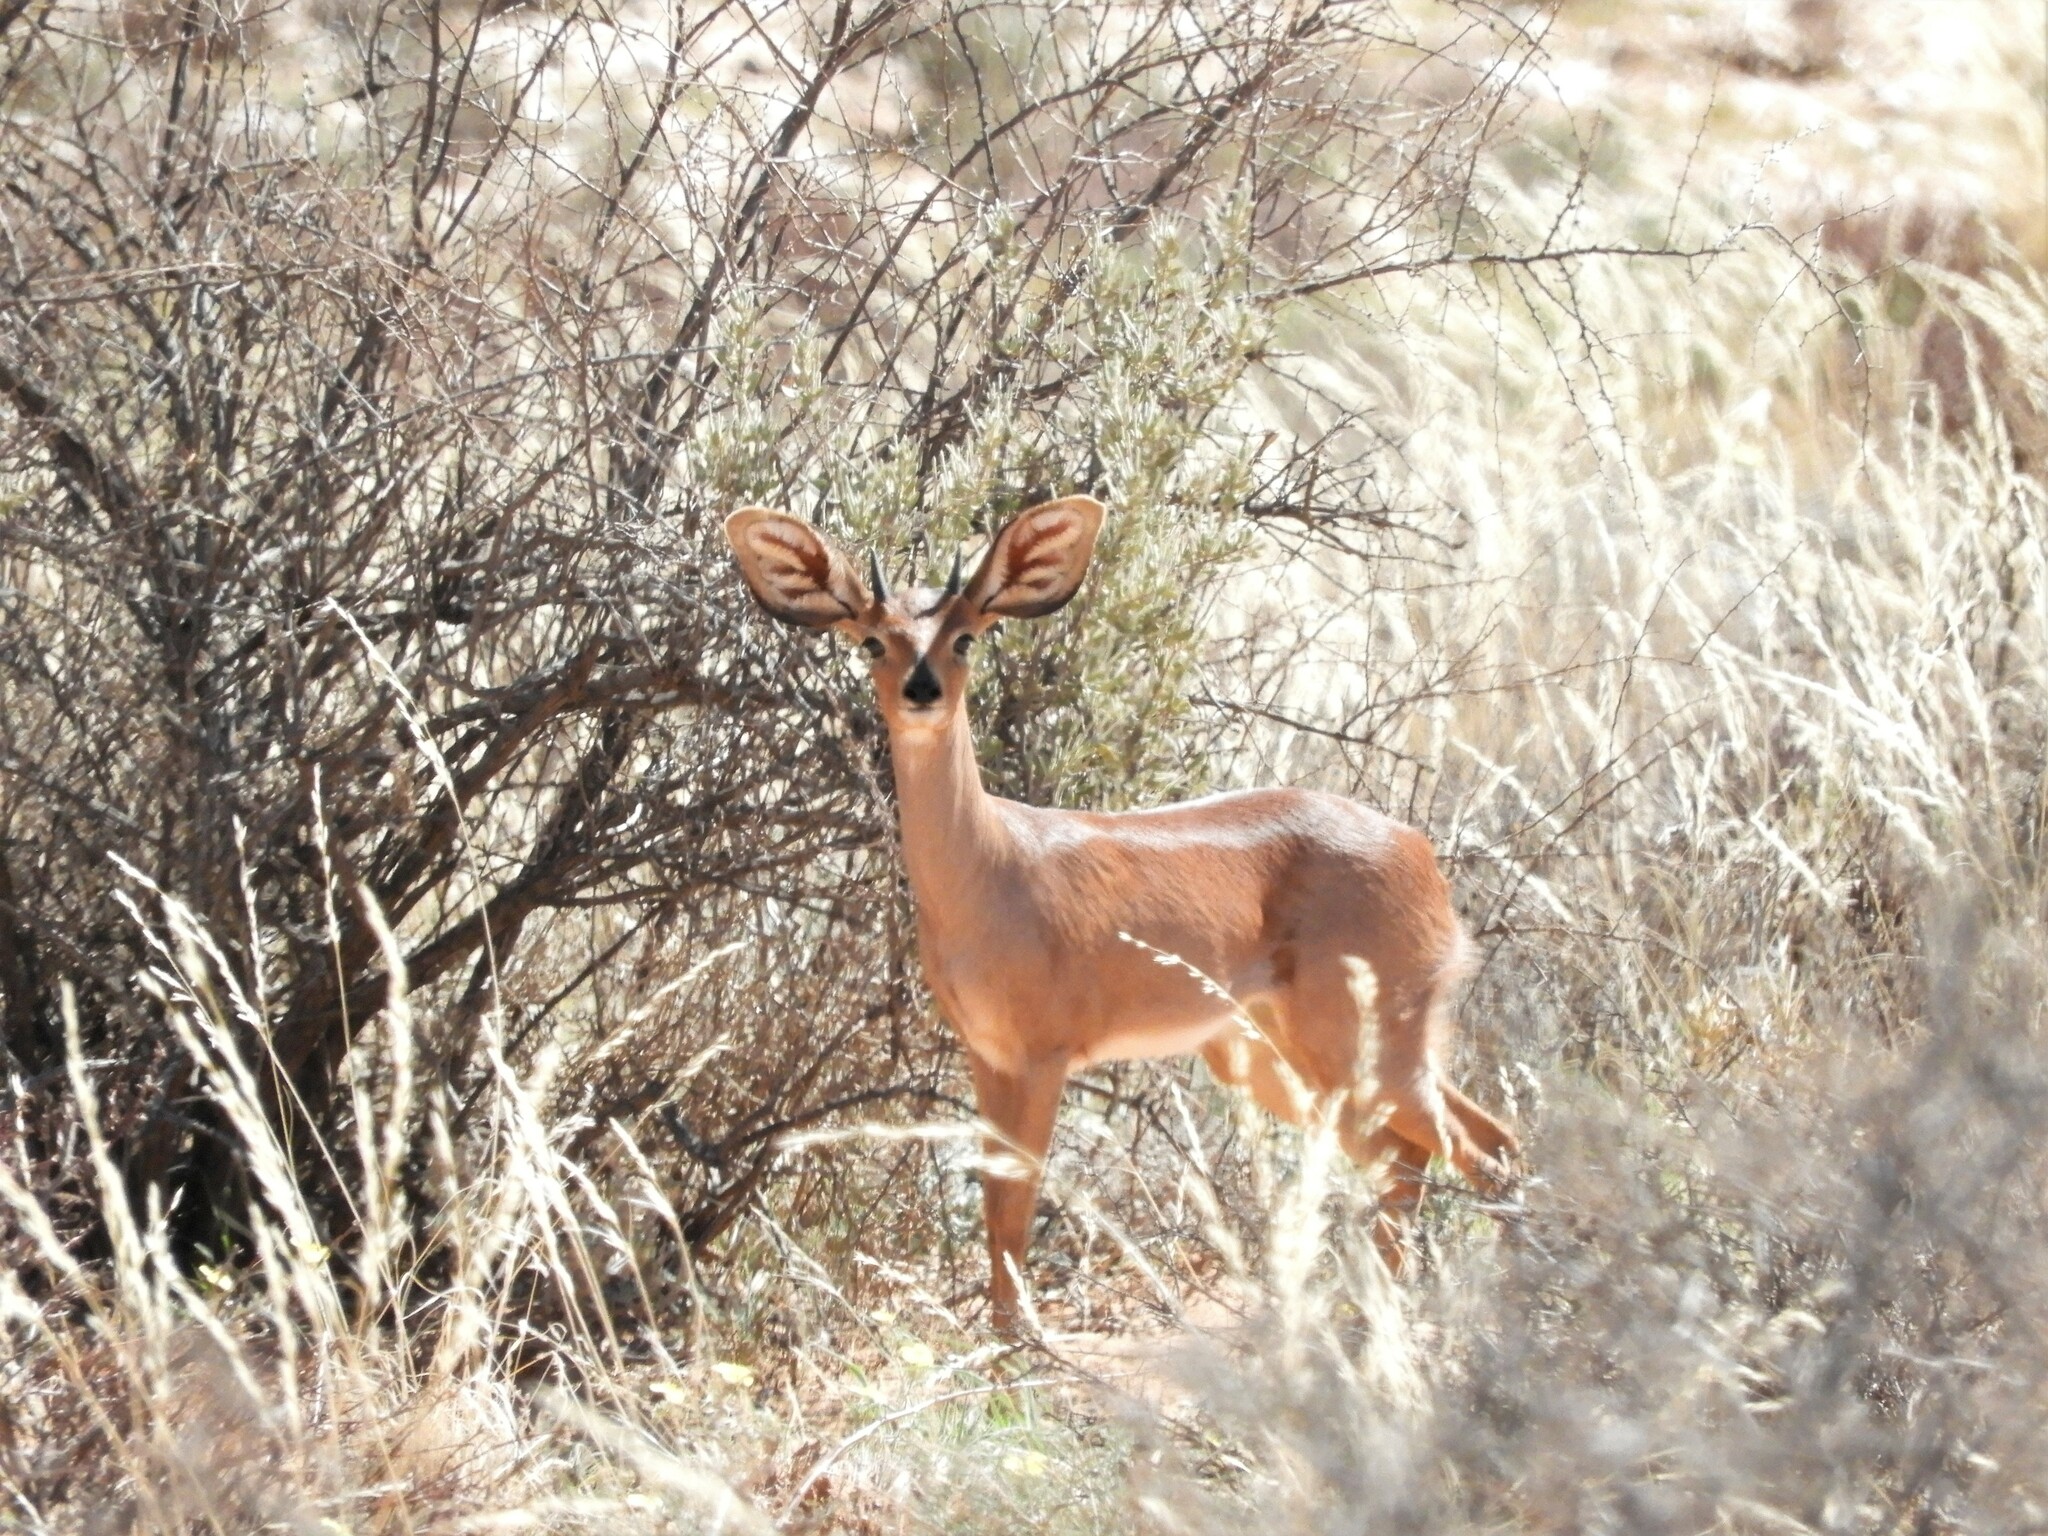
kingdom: Animalia
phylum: Chordata
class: Mammalia
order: Artiodactyla
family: Bovidae
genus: Raphicerus
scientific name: Raphicerus campestris
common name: Steenbok
